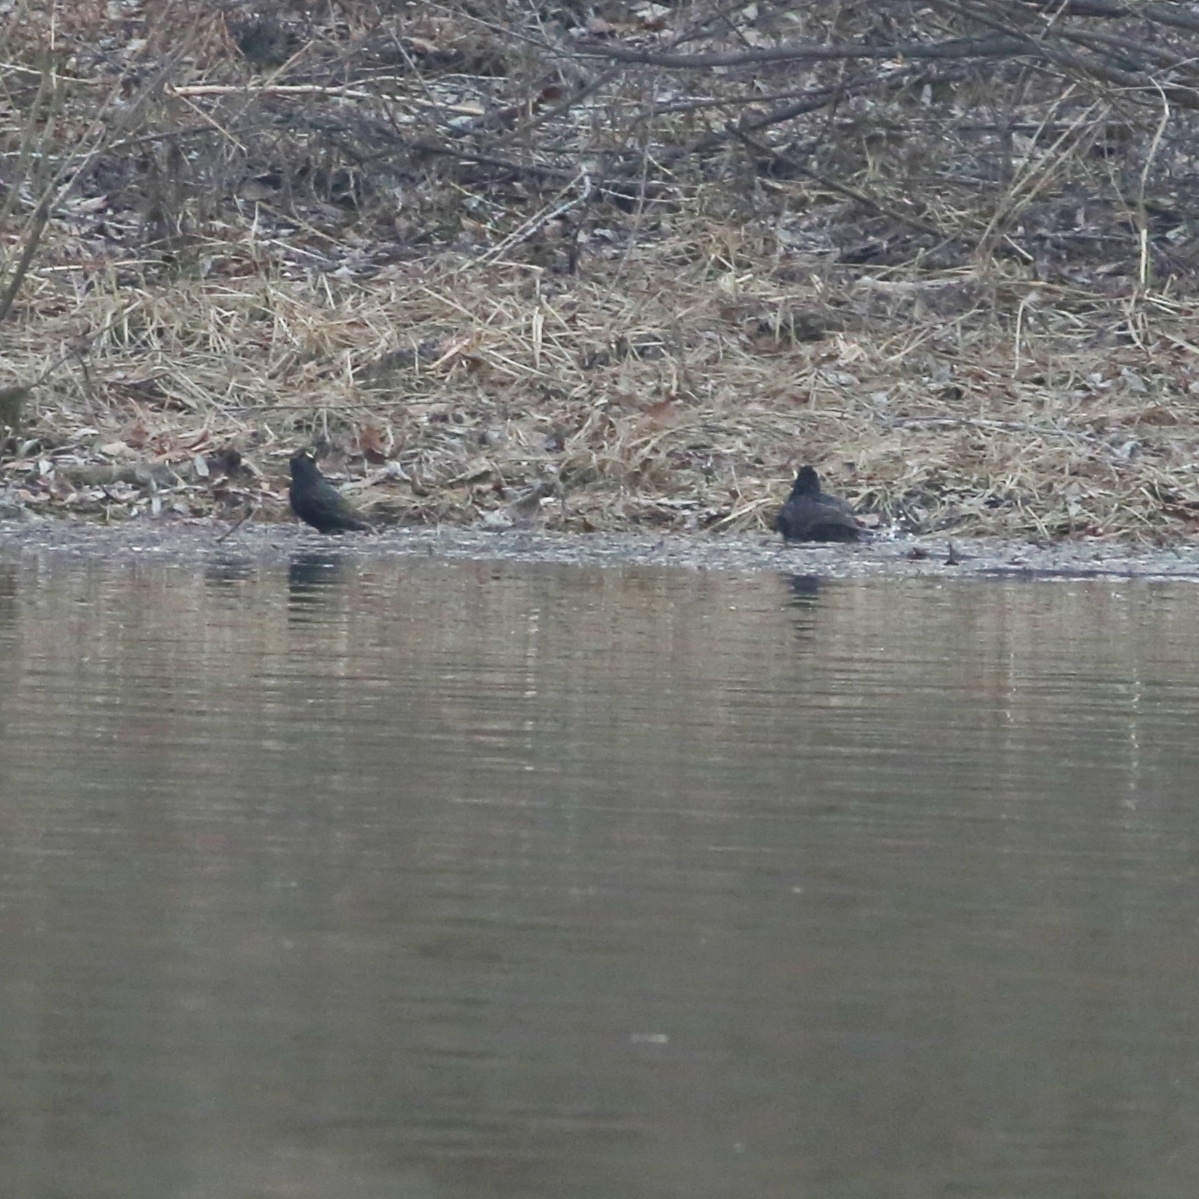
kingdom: Animalia
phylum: Chordata
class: Aves
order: Passeriformes
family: Sturnidae
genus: Sturnus
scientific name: Sturnus vulgaris
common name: Common starling
